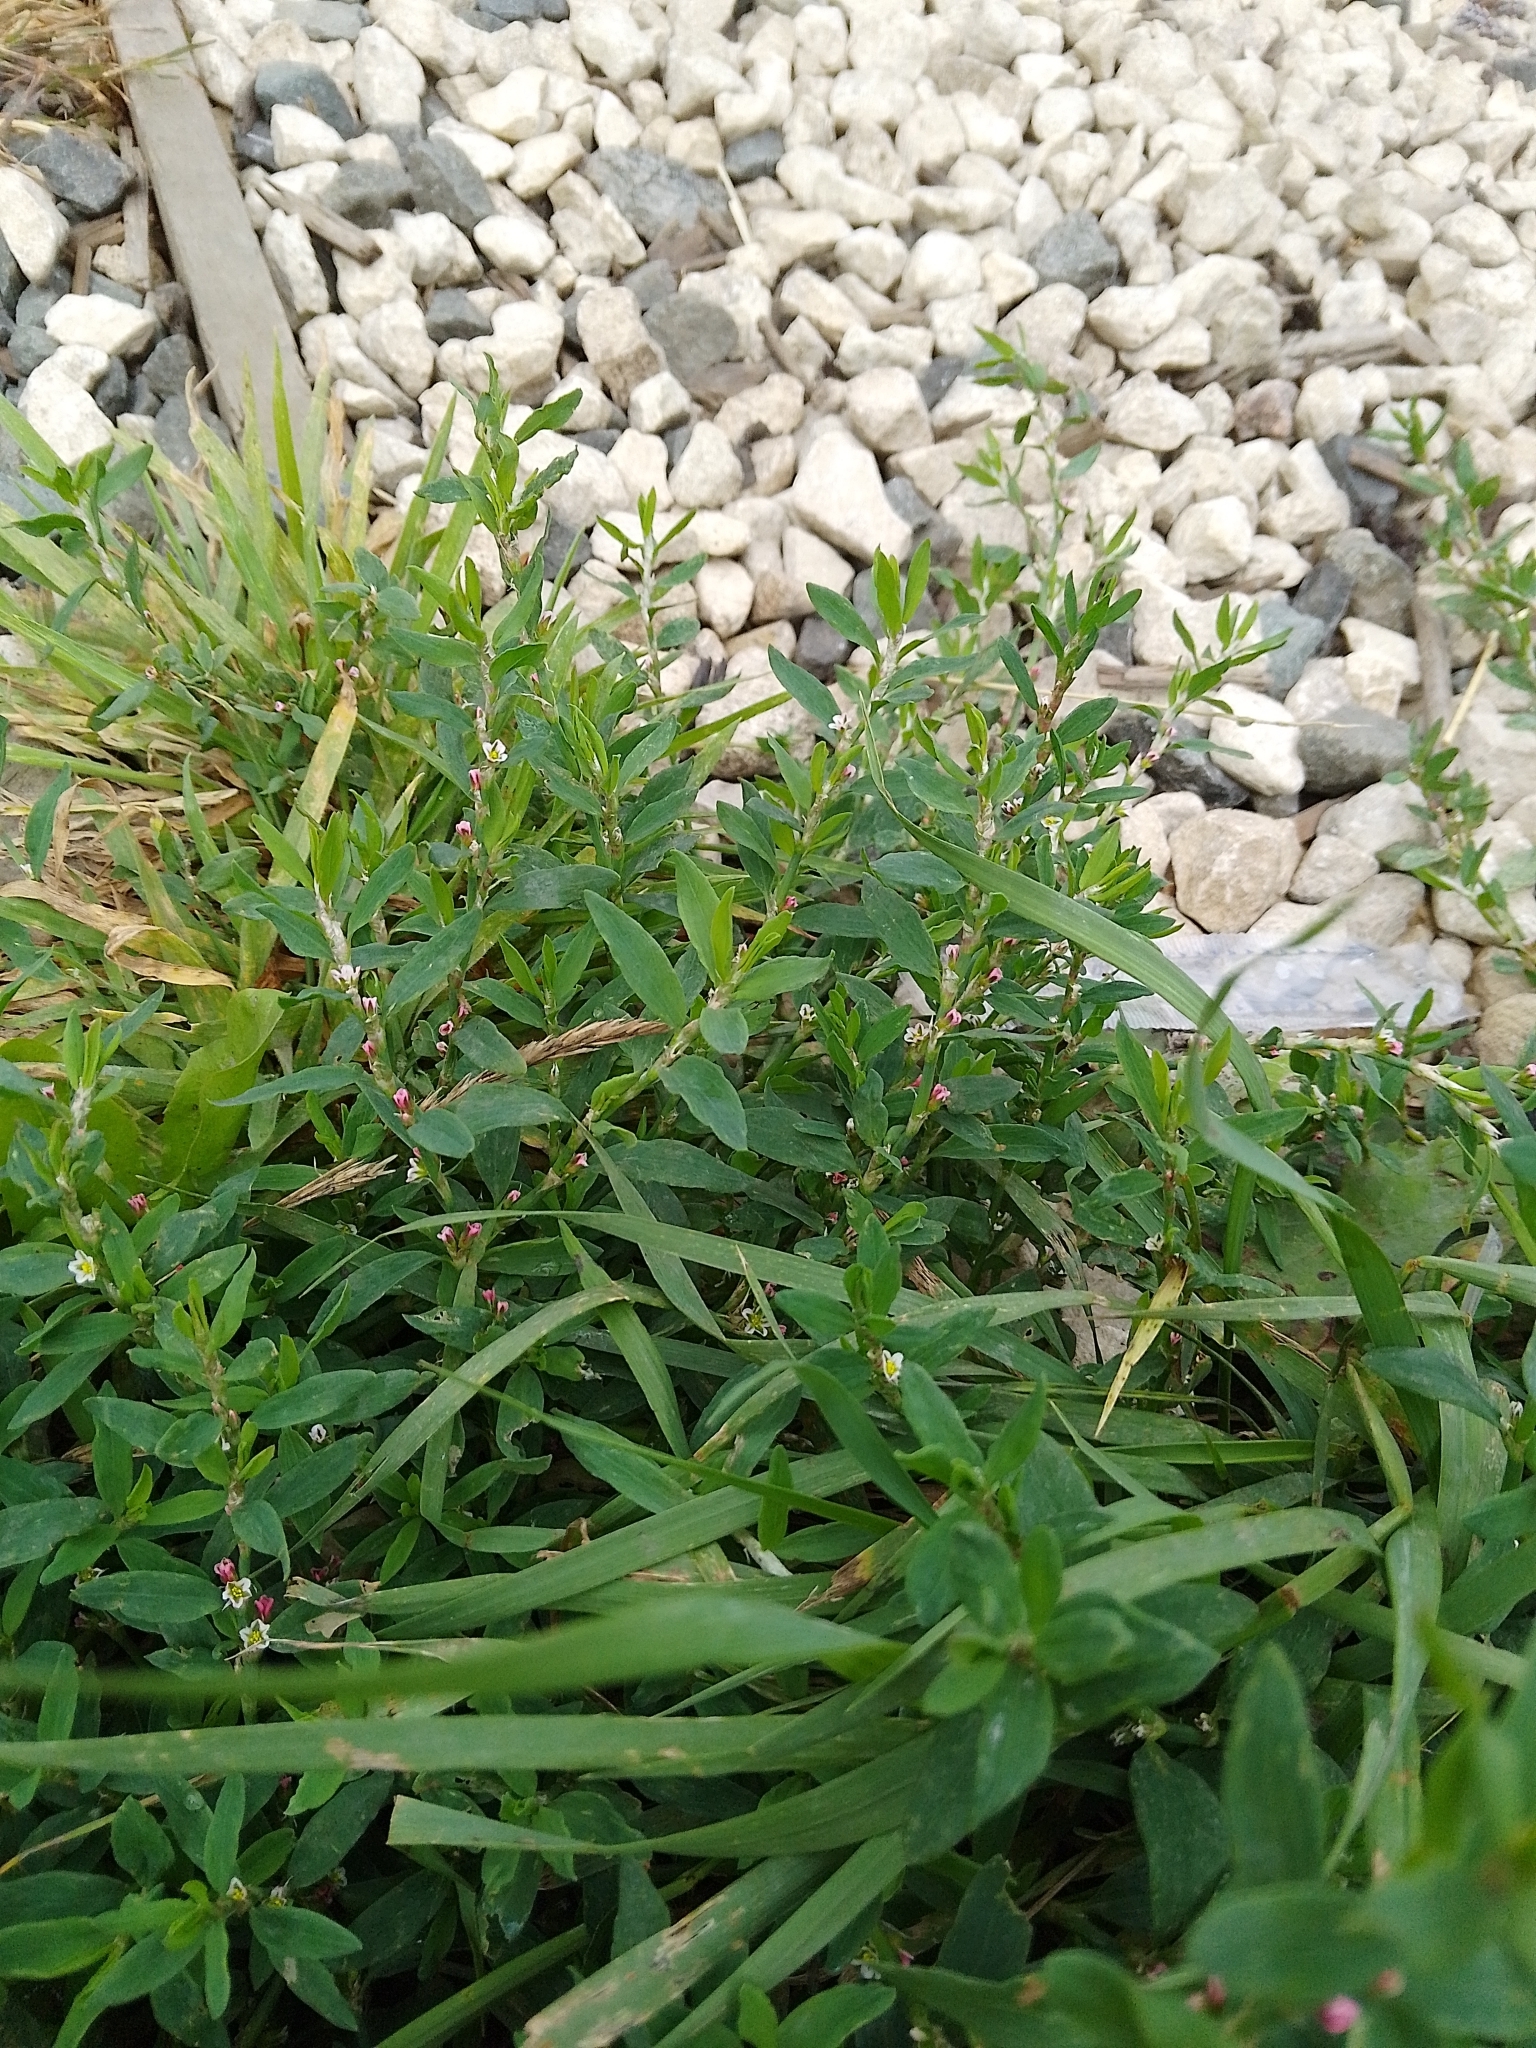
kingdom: Plantae
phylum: Tracheophyta
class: Magnoliopsida
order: Caryophyllales
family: Polygonaceae
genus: Polygonum
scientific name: Polygonum aviculare
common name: Prostrate knotweed
